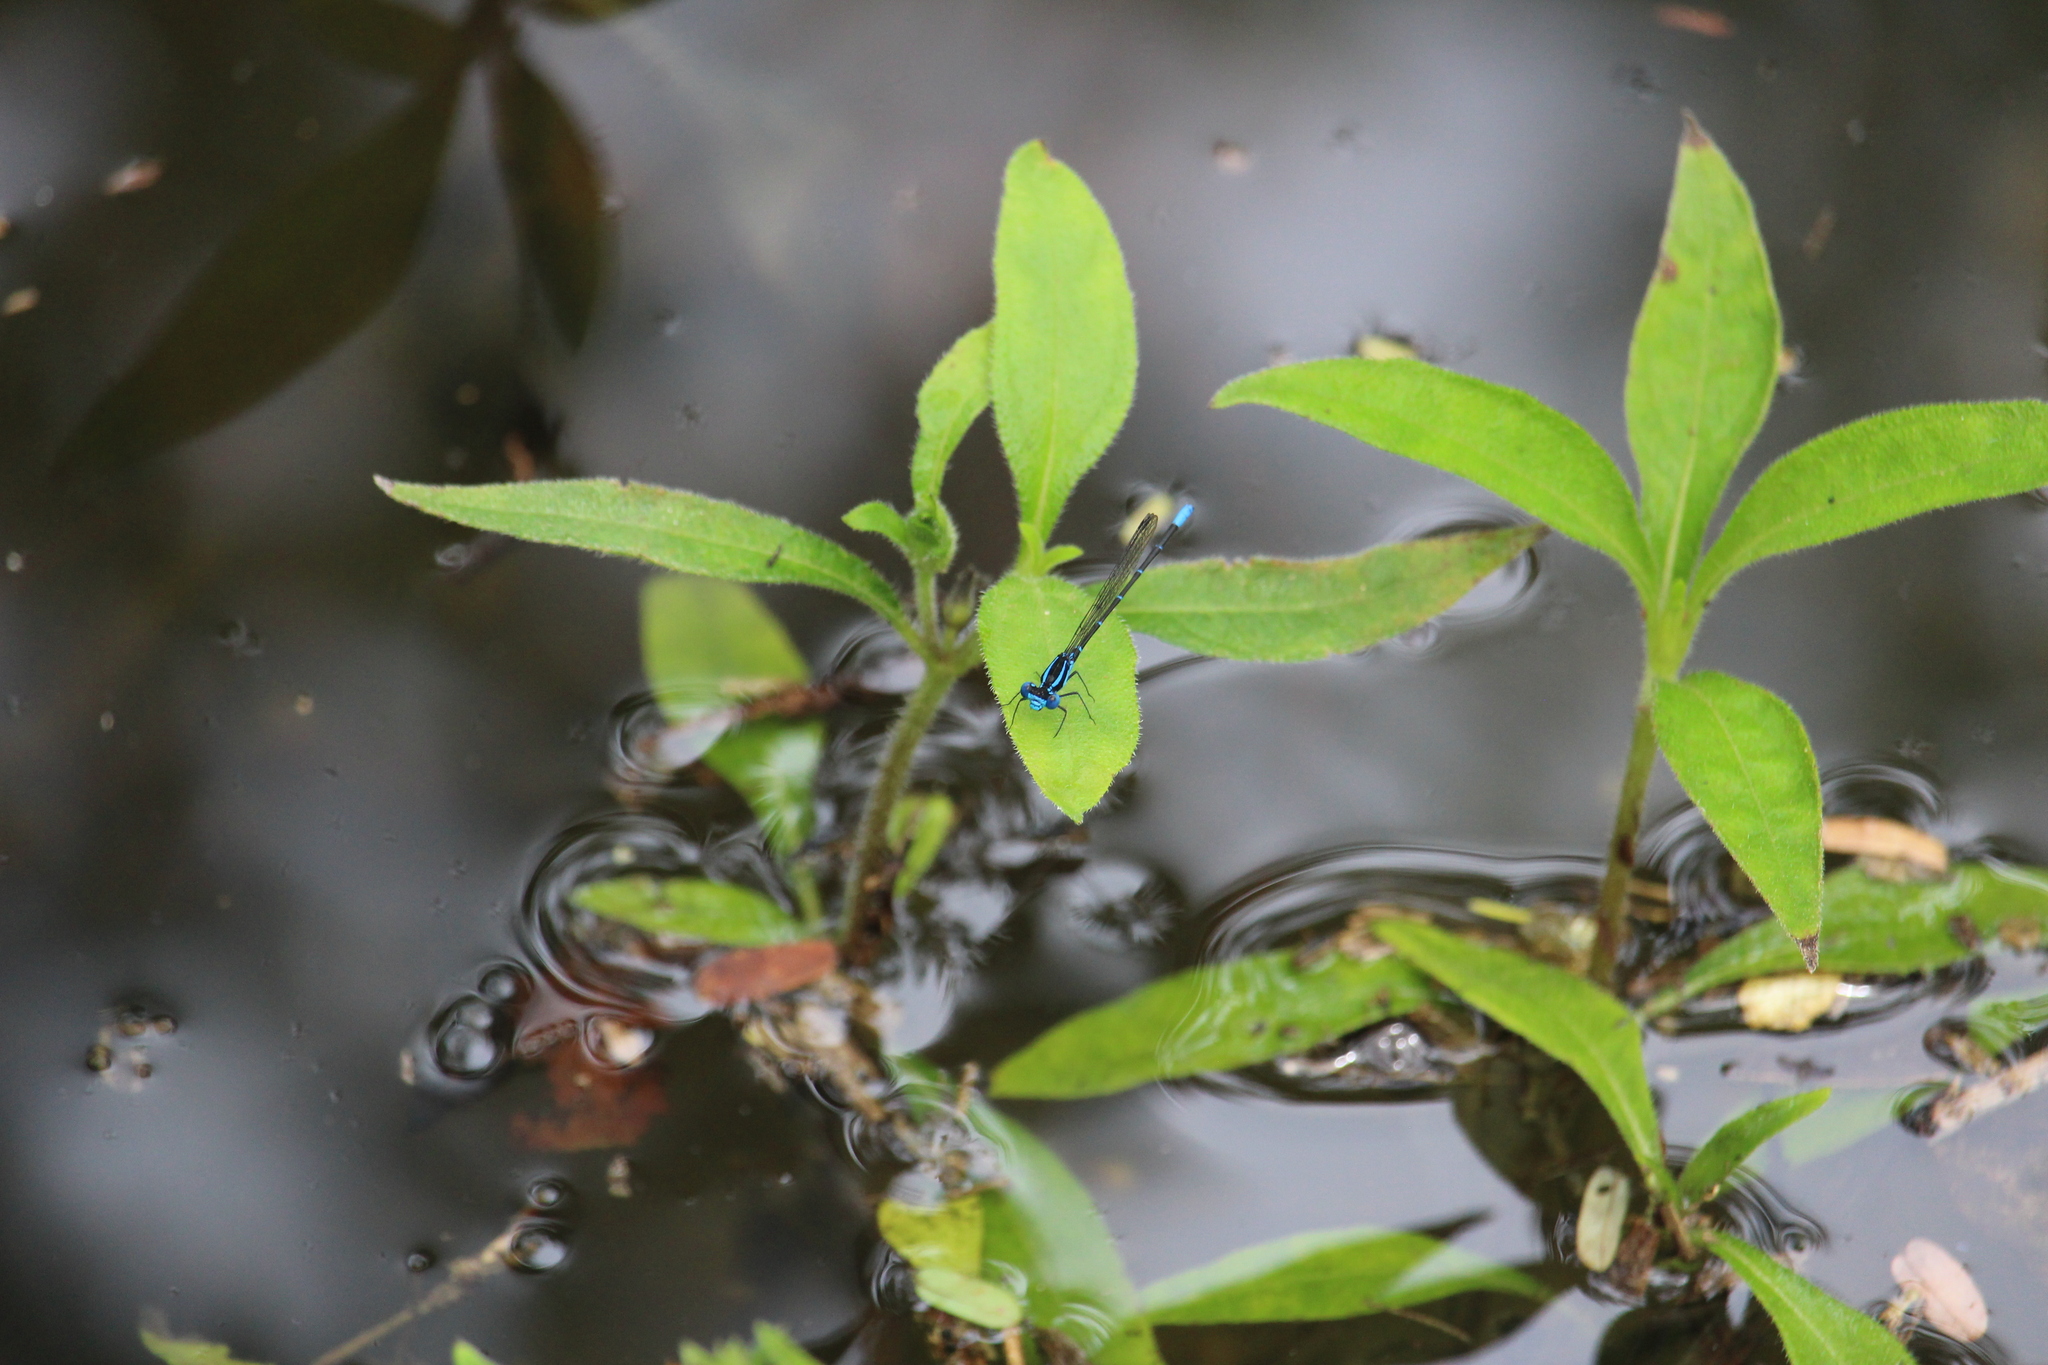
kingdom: Animalia
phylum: Arthropoda
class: Insecta
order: Odonata
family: Coenagrionidae
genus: Argia
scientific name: Argia gaumeri
